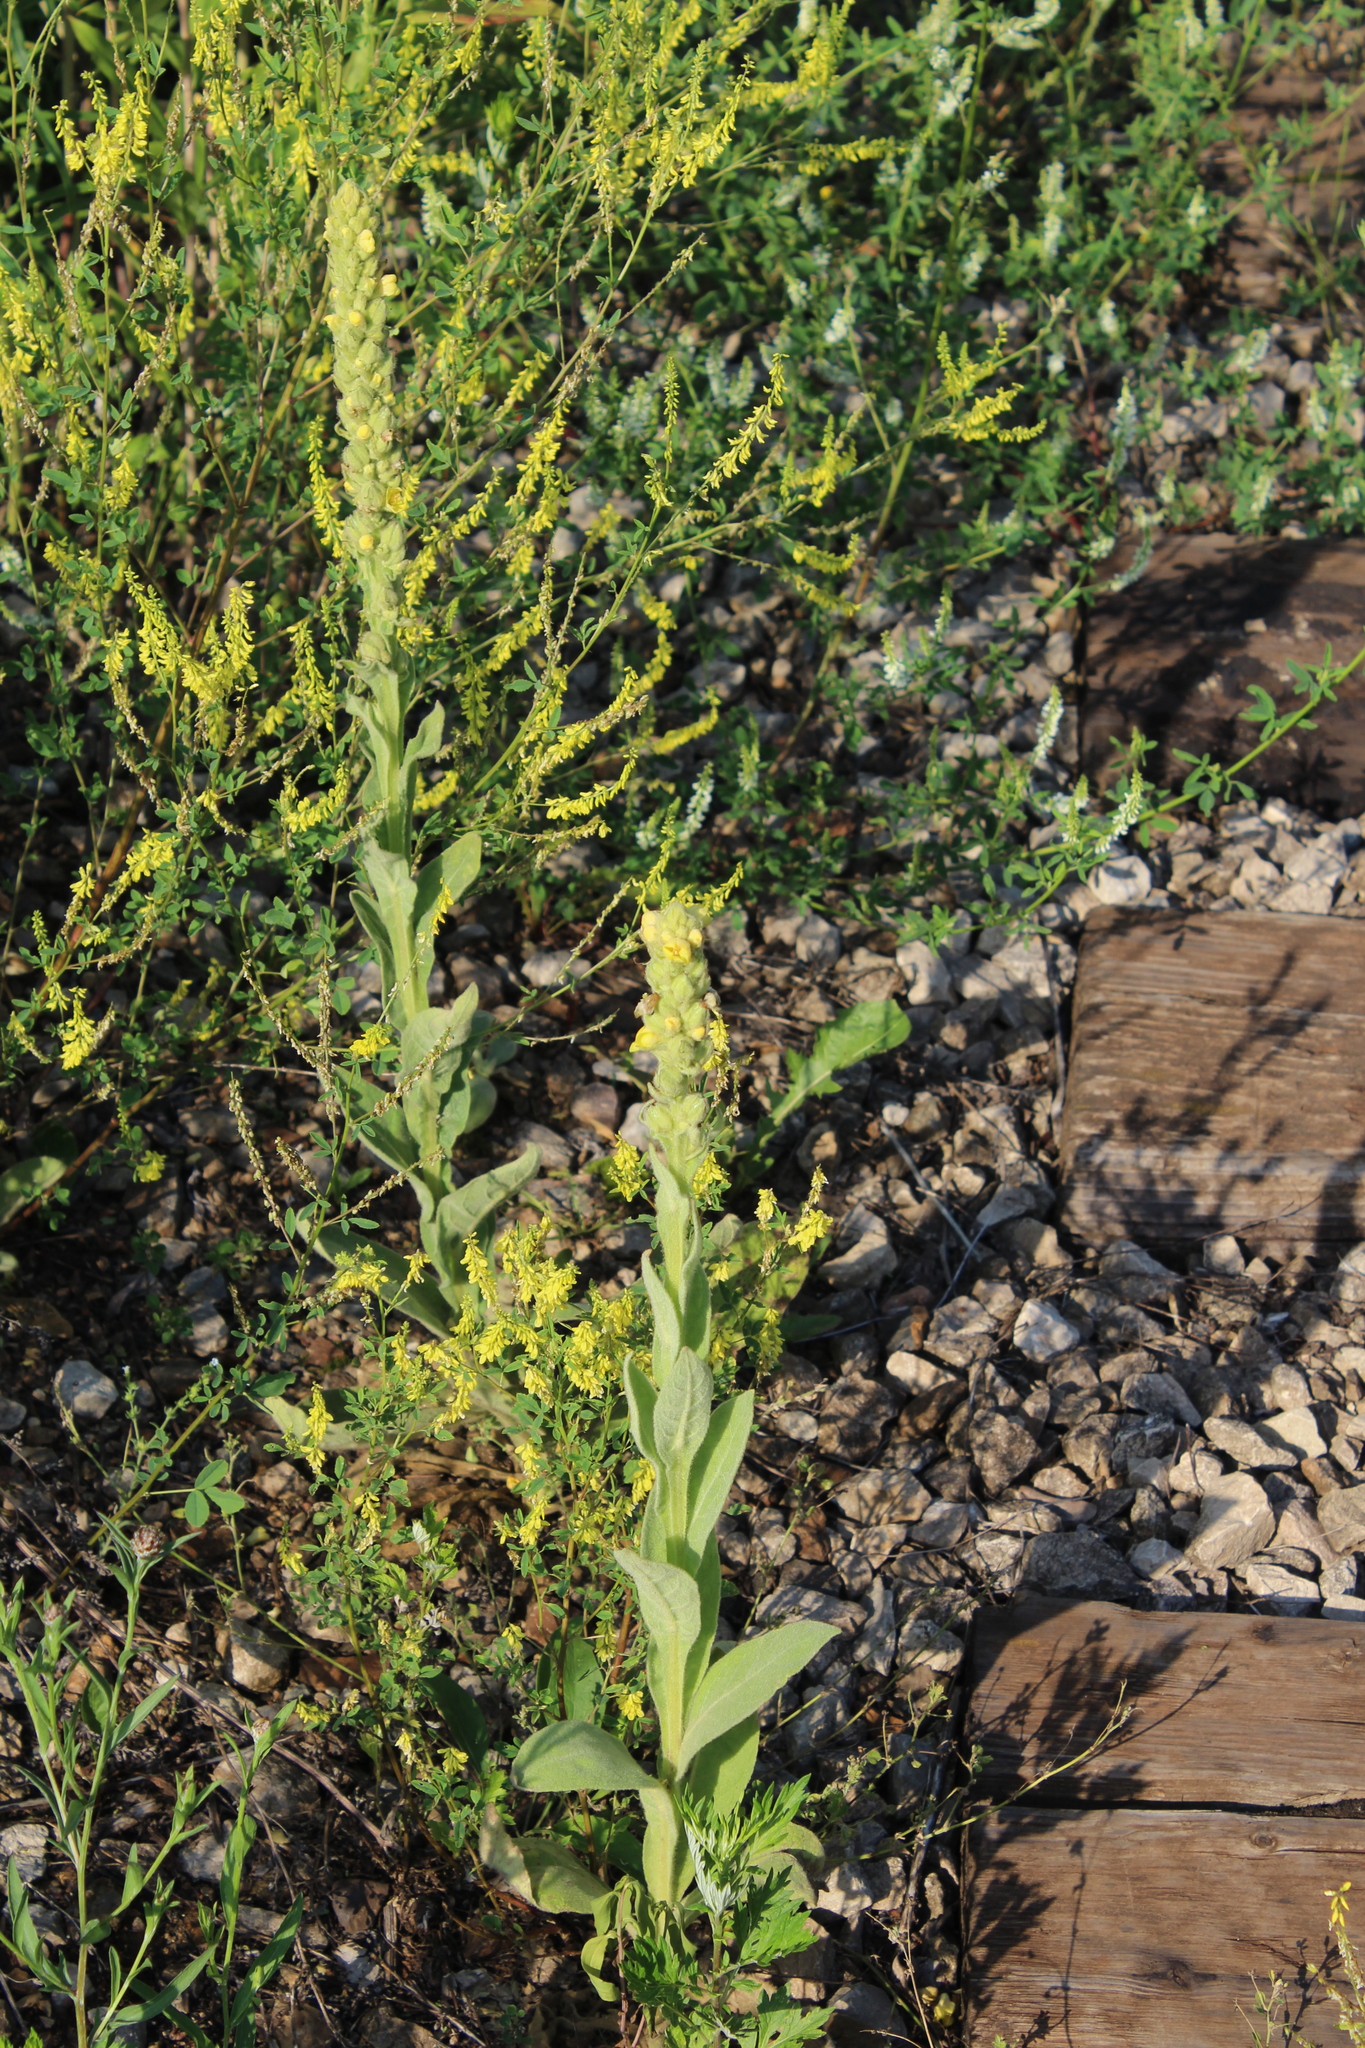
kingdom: Plantae
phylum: Tracheophyta
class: Magnoliopsida
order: Lamiales
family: Scrophulariaceae
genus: Verbascum
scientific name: Verbascum thapsus
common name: Common mullein
